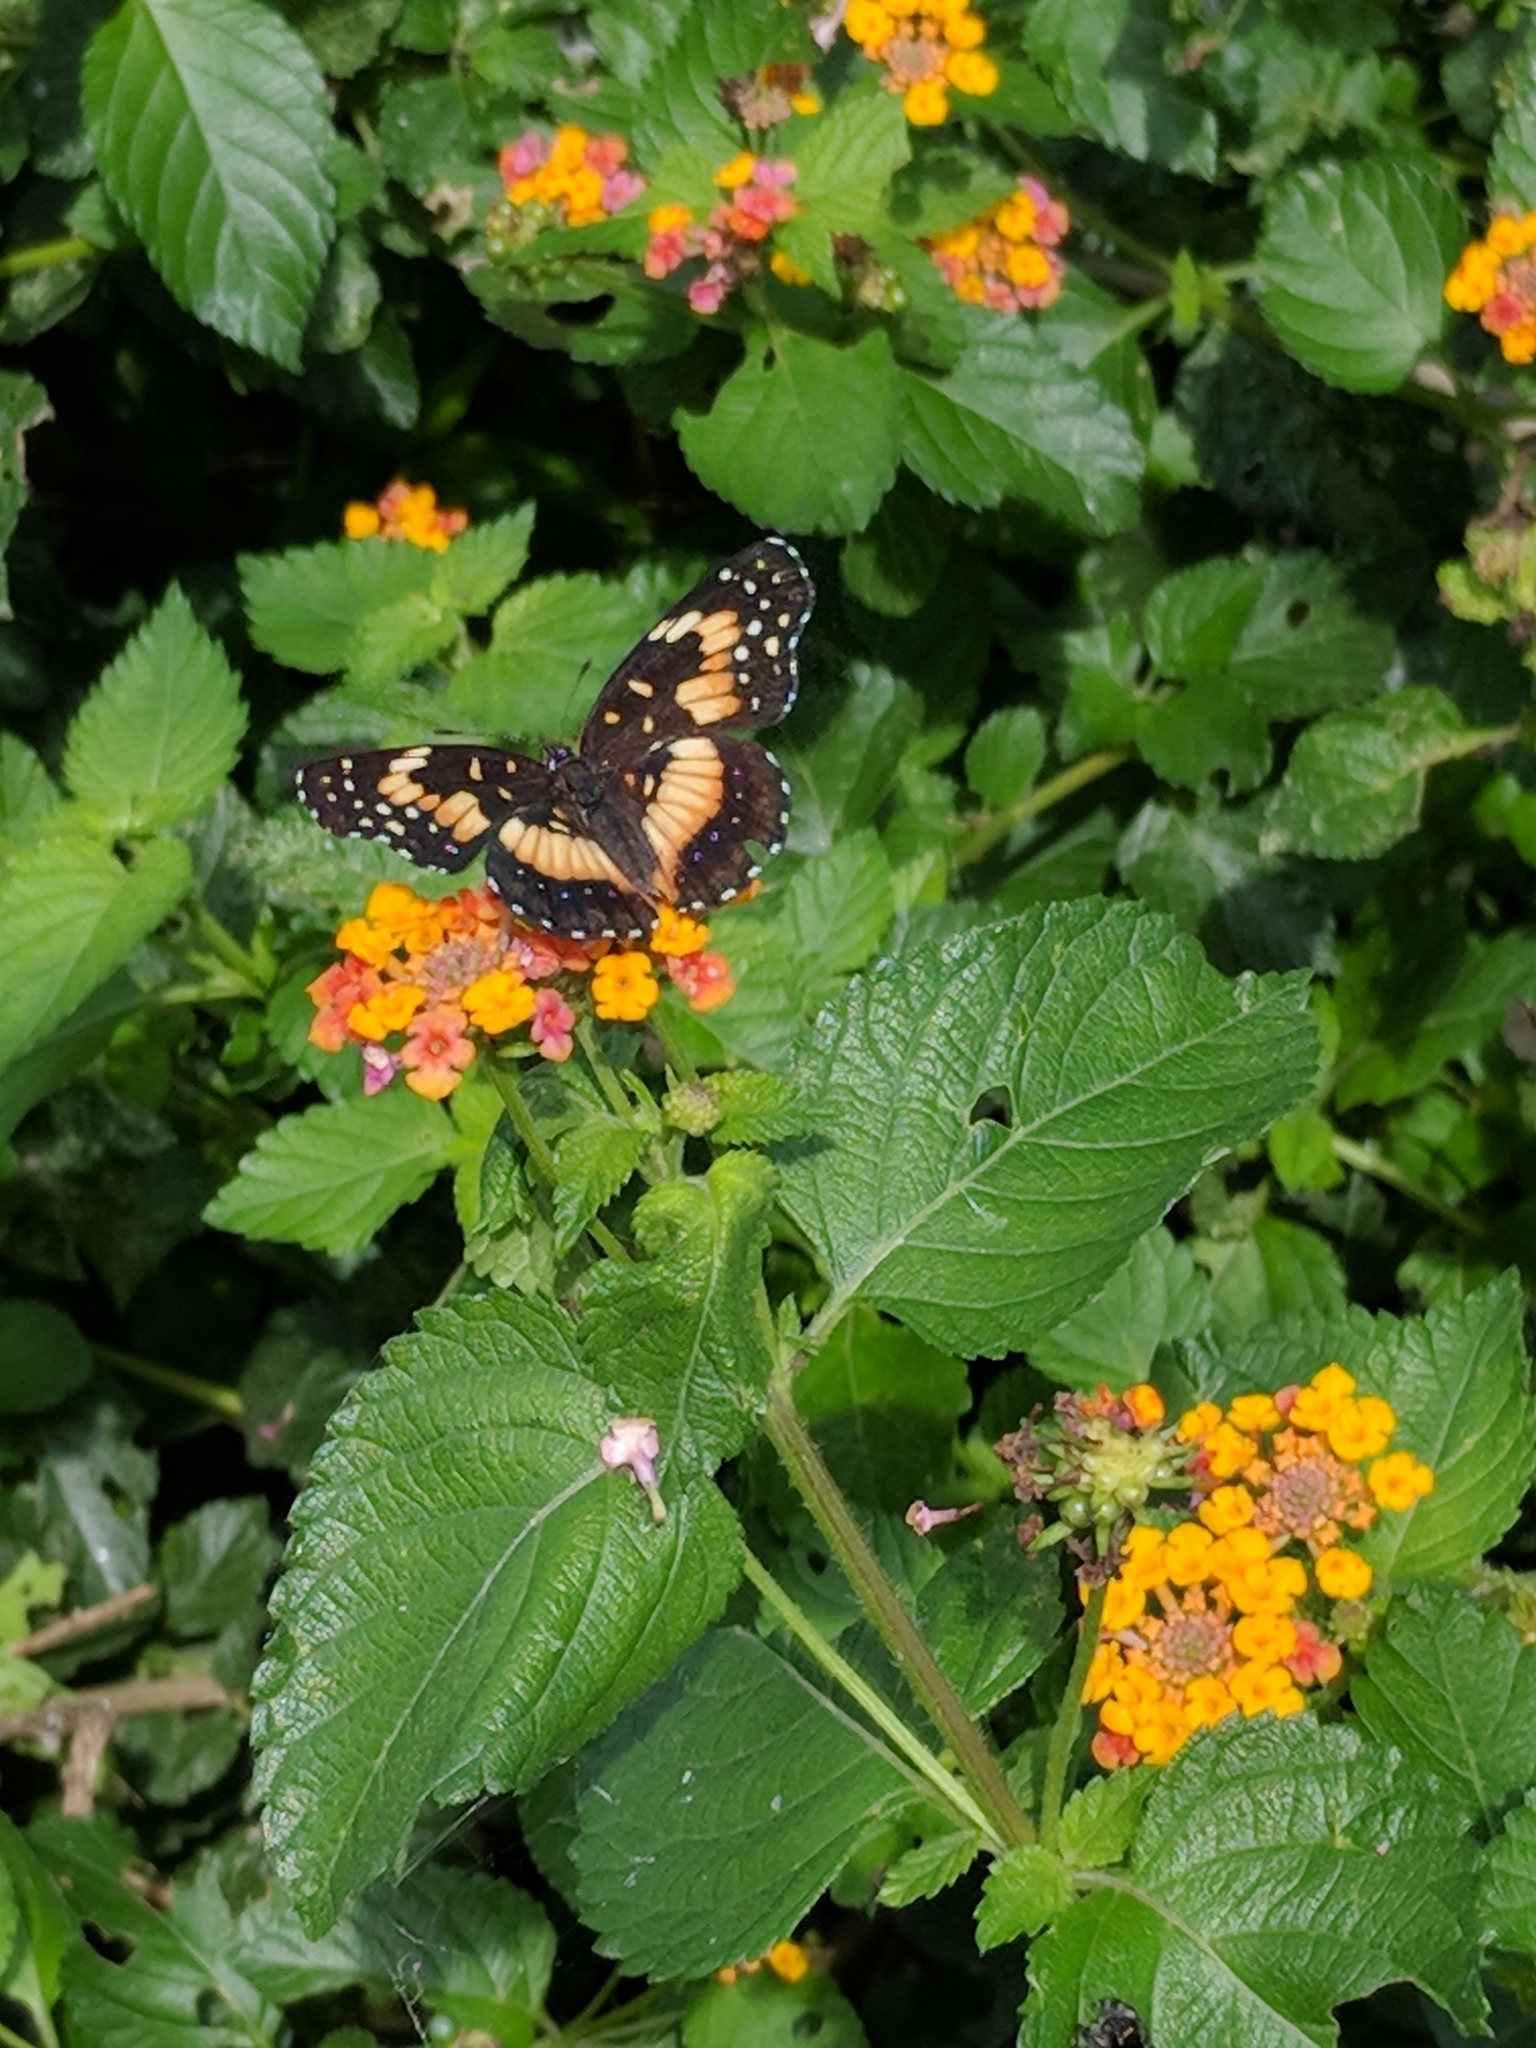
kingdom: Animalia
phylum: Arthropoda
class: Insecta
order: Lepidoptera
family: Nymphalidae
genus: Chlosyne
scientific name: Chlosyne lacinia
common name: Bordered patch
